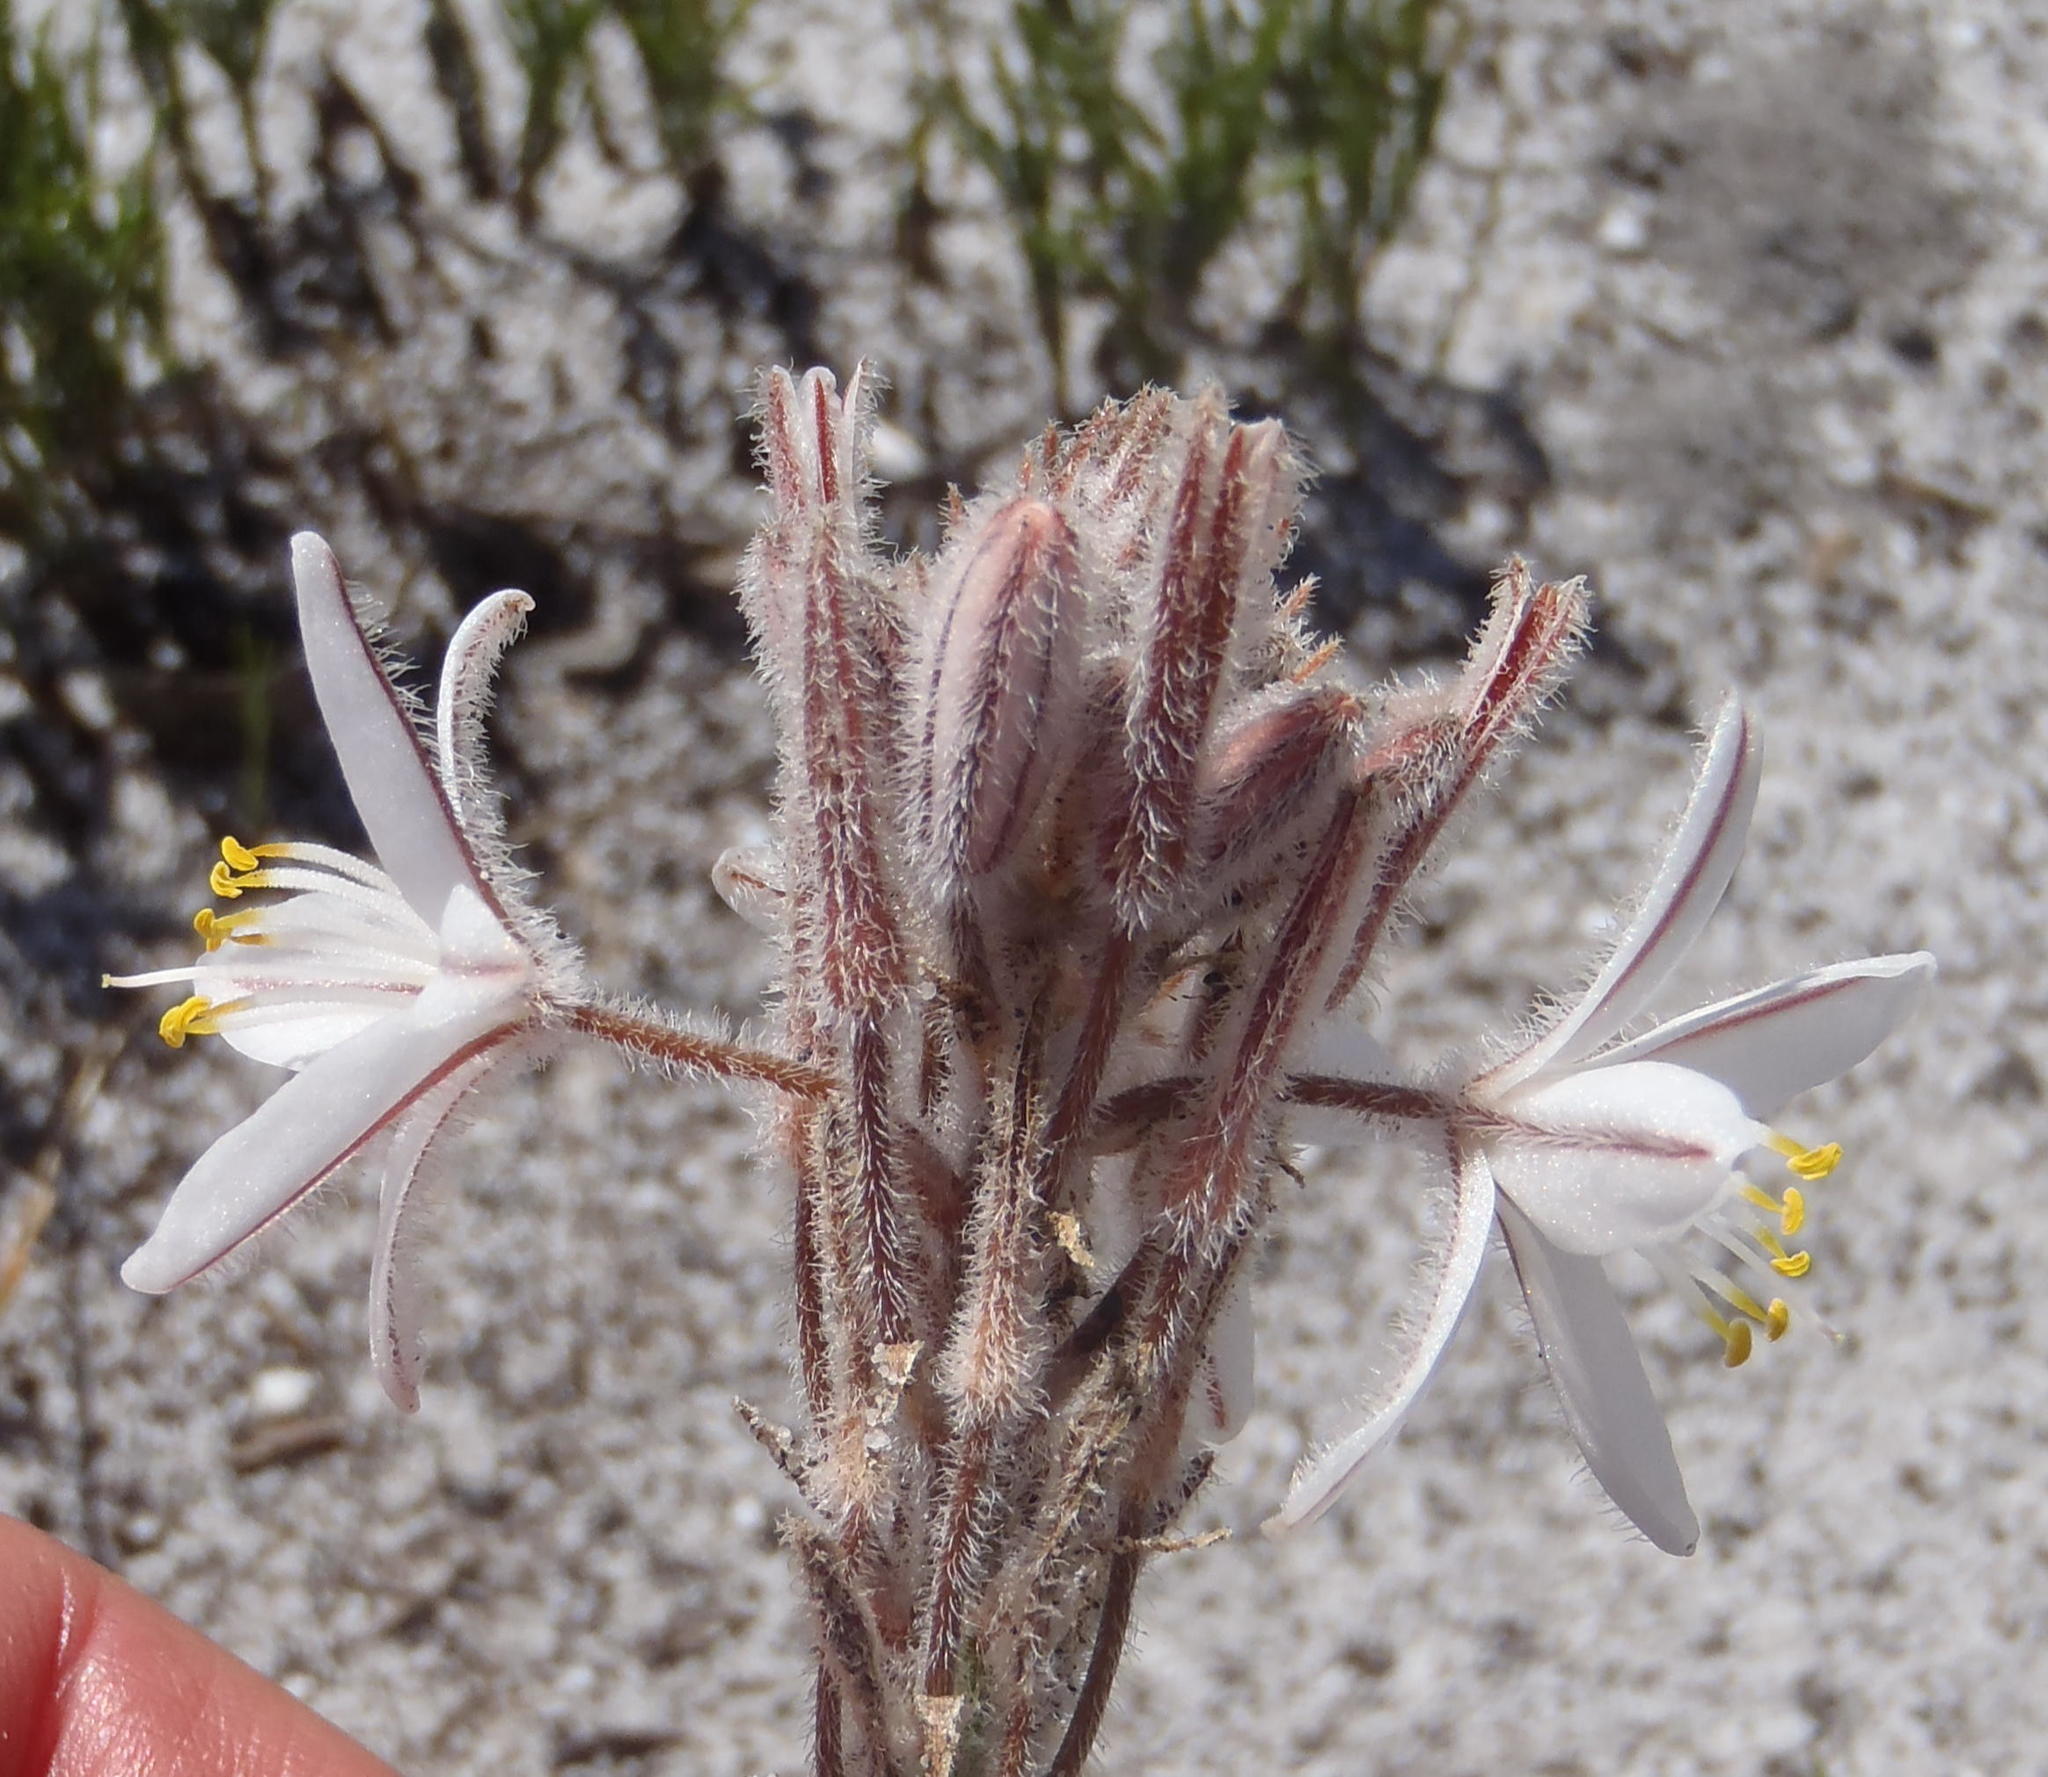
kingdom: Plantae
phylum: Tracheophyta
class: Liliopsida
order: Asparagales
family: Asphodelaceae
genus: Trachyandra
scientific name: Trachyandra hirsutiflora
